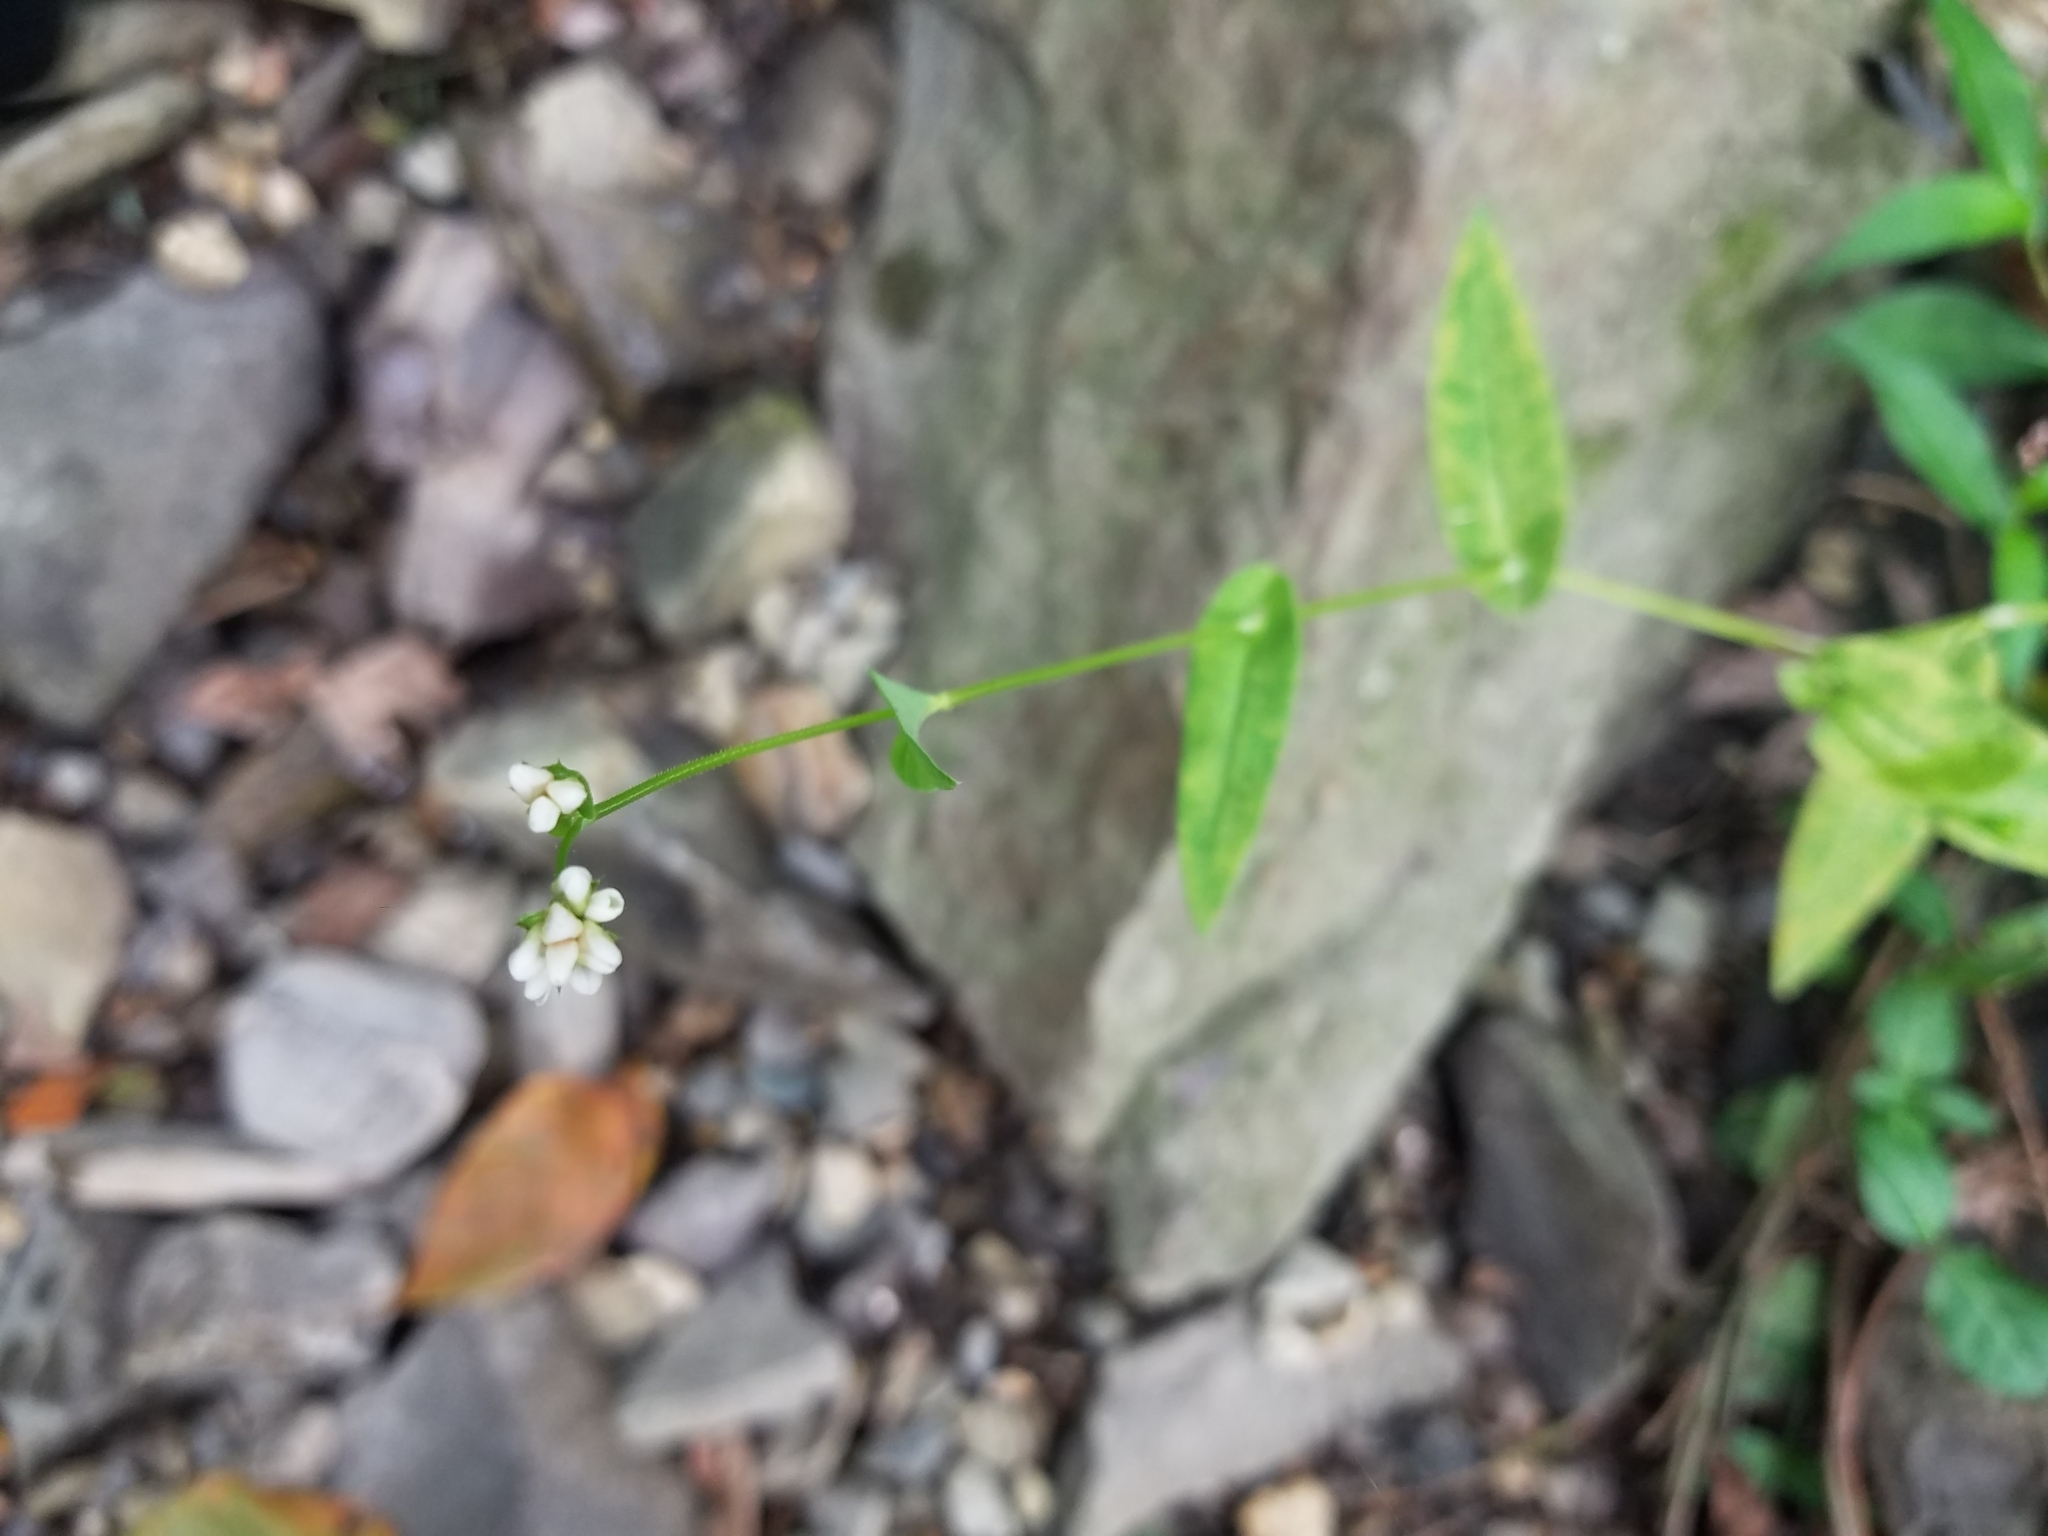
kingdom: Plantae
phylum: Tracheophyta
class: Magnoliopsida
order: Caryophyllales
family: Polygonaceae
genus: Persicaria
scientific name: Persicaria sagittata
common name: American tearthumb
